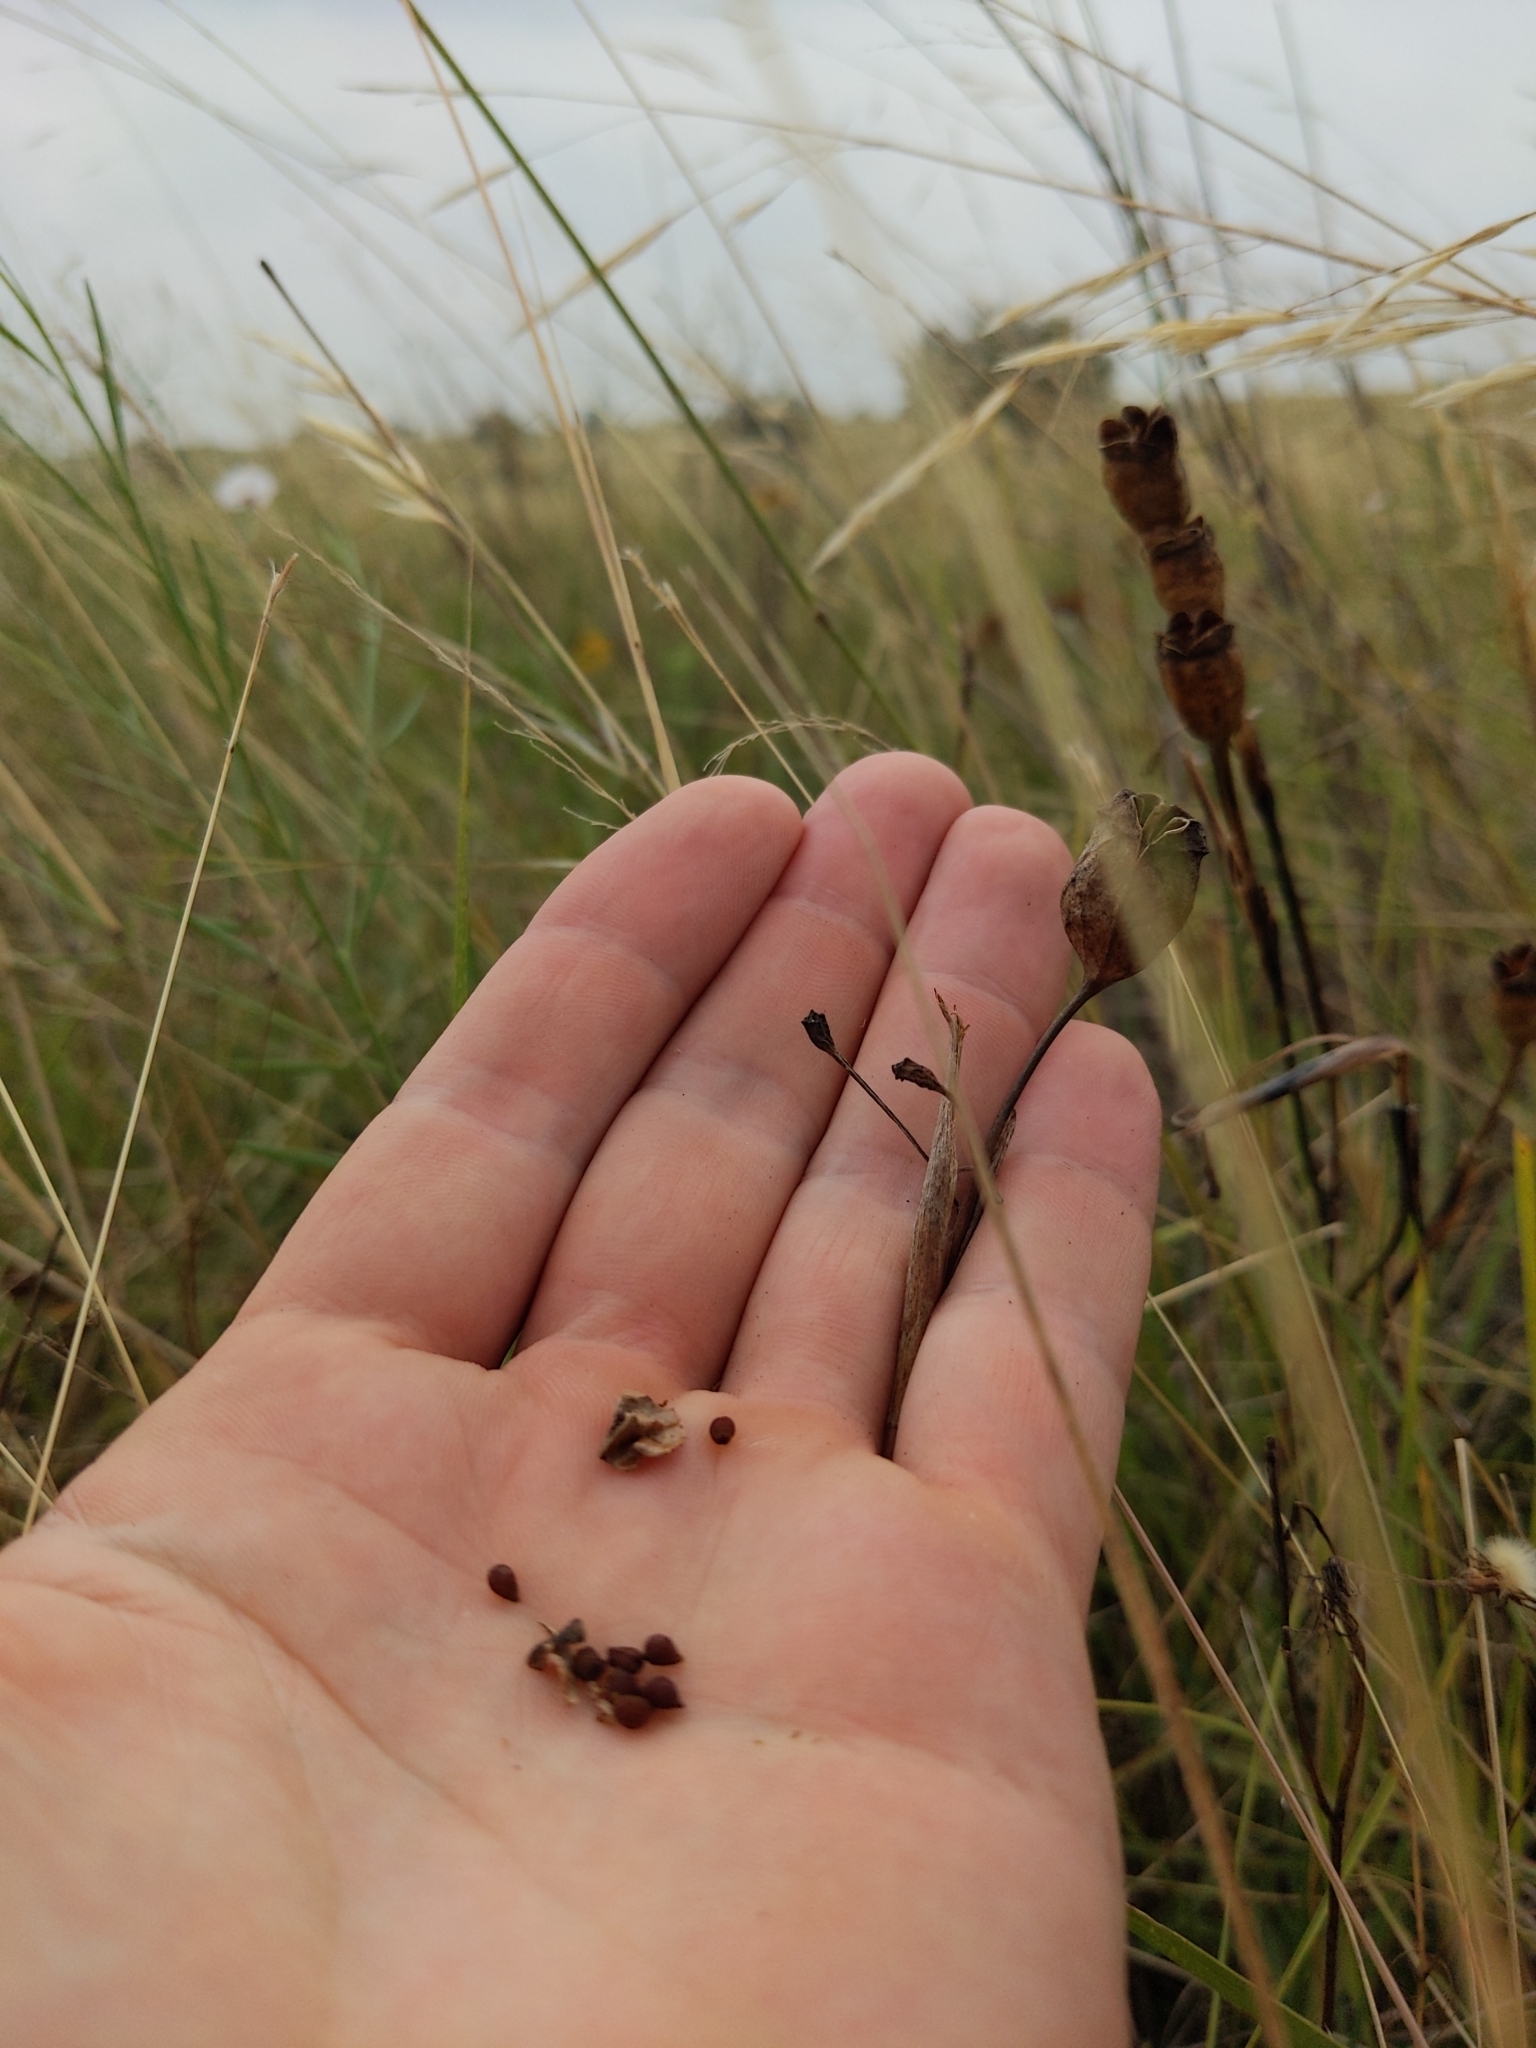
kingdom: Plantae
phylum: Tracheophyta
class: Liliopsida
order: Asparagales
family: Iridaceae
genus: Nemastylis
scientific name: Nemastylis geminiflora
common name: Prairie celestial
